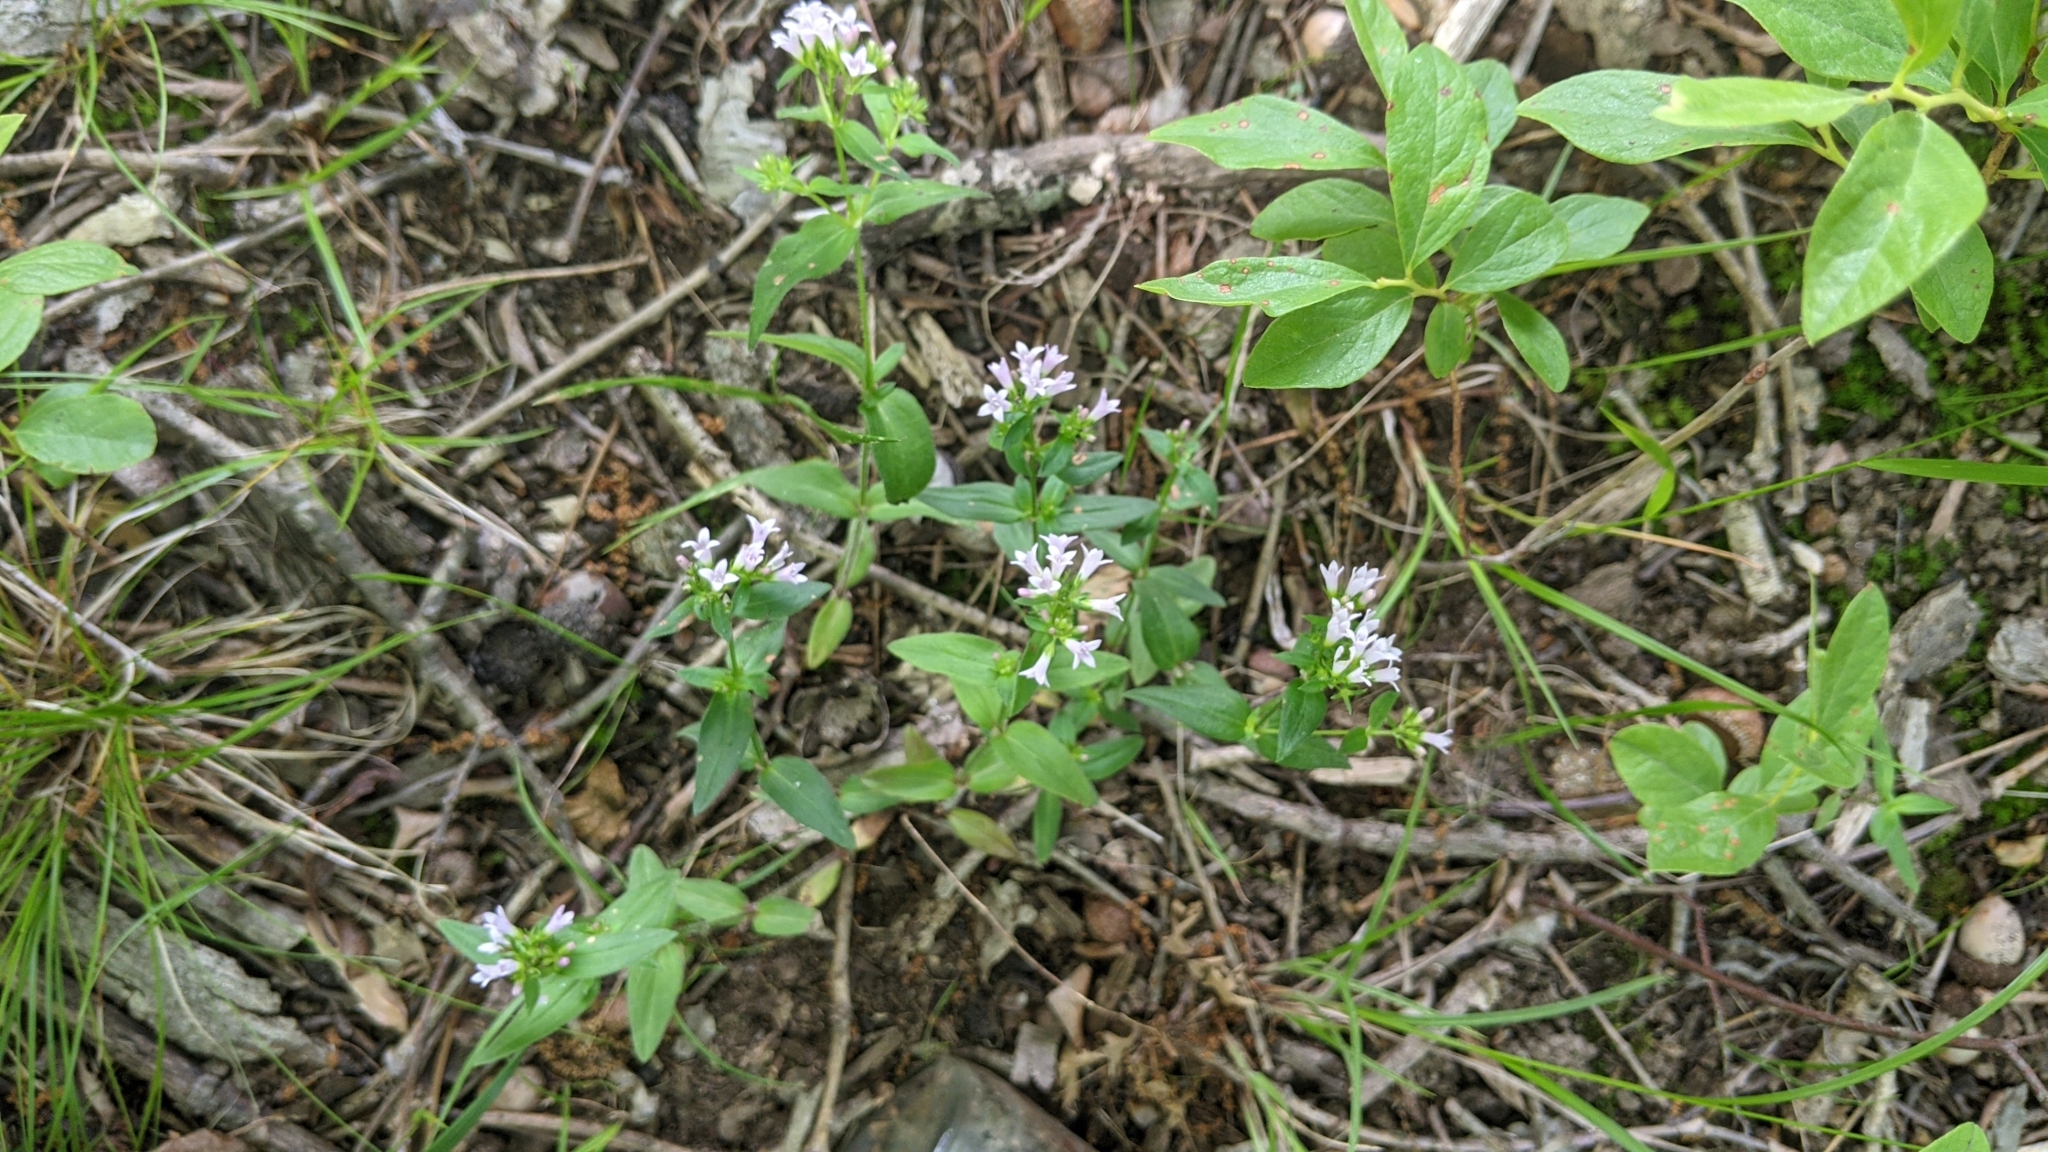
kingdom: Plantae
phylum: Tracheophyta
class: Magnoliopsida
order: Gentianales
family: Rubiaceae
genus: Houstonia
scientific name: Houstonia purpurea
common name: Summer bluet
